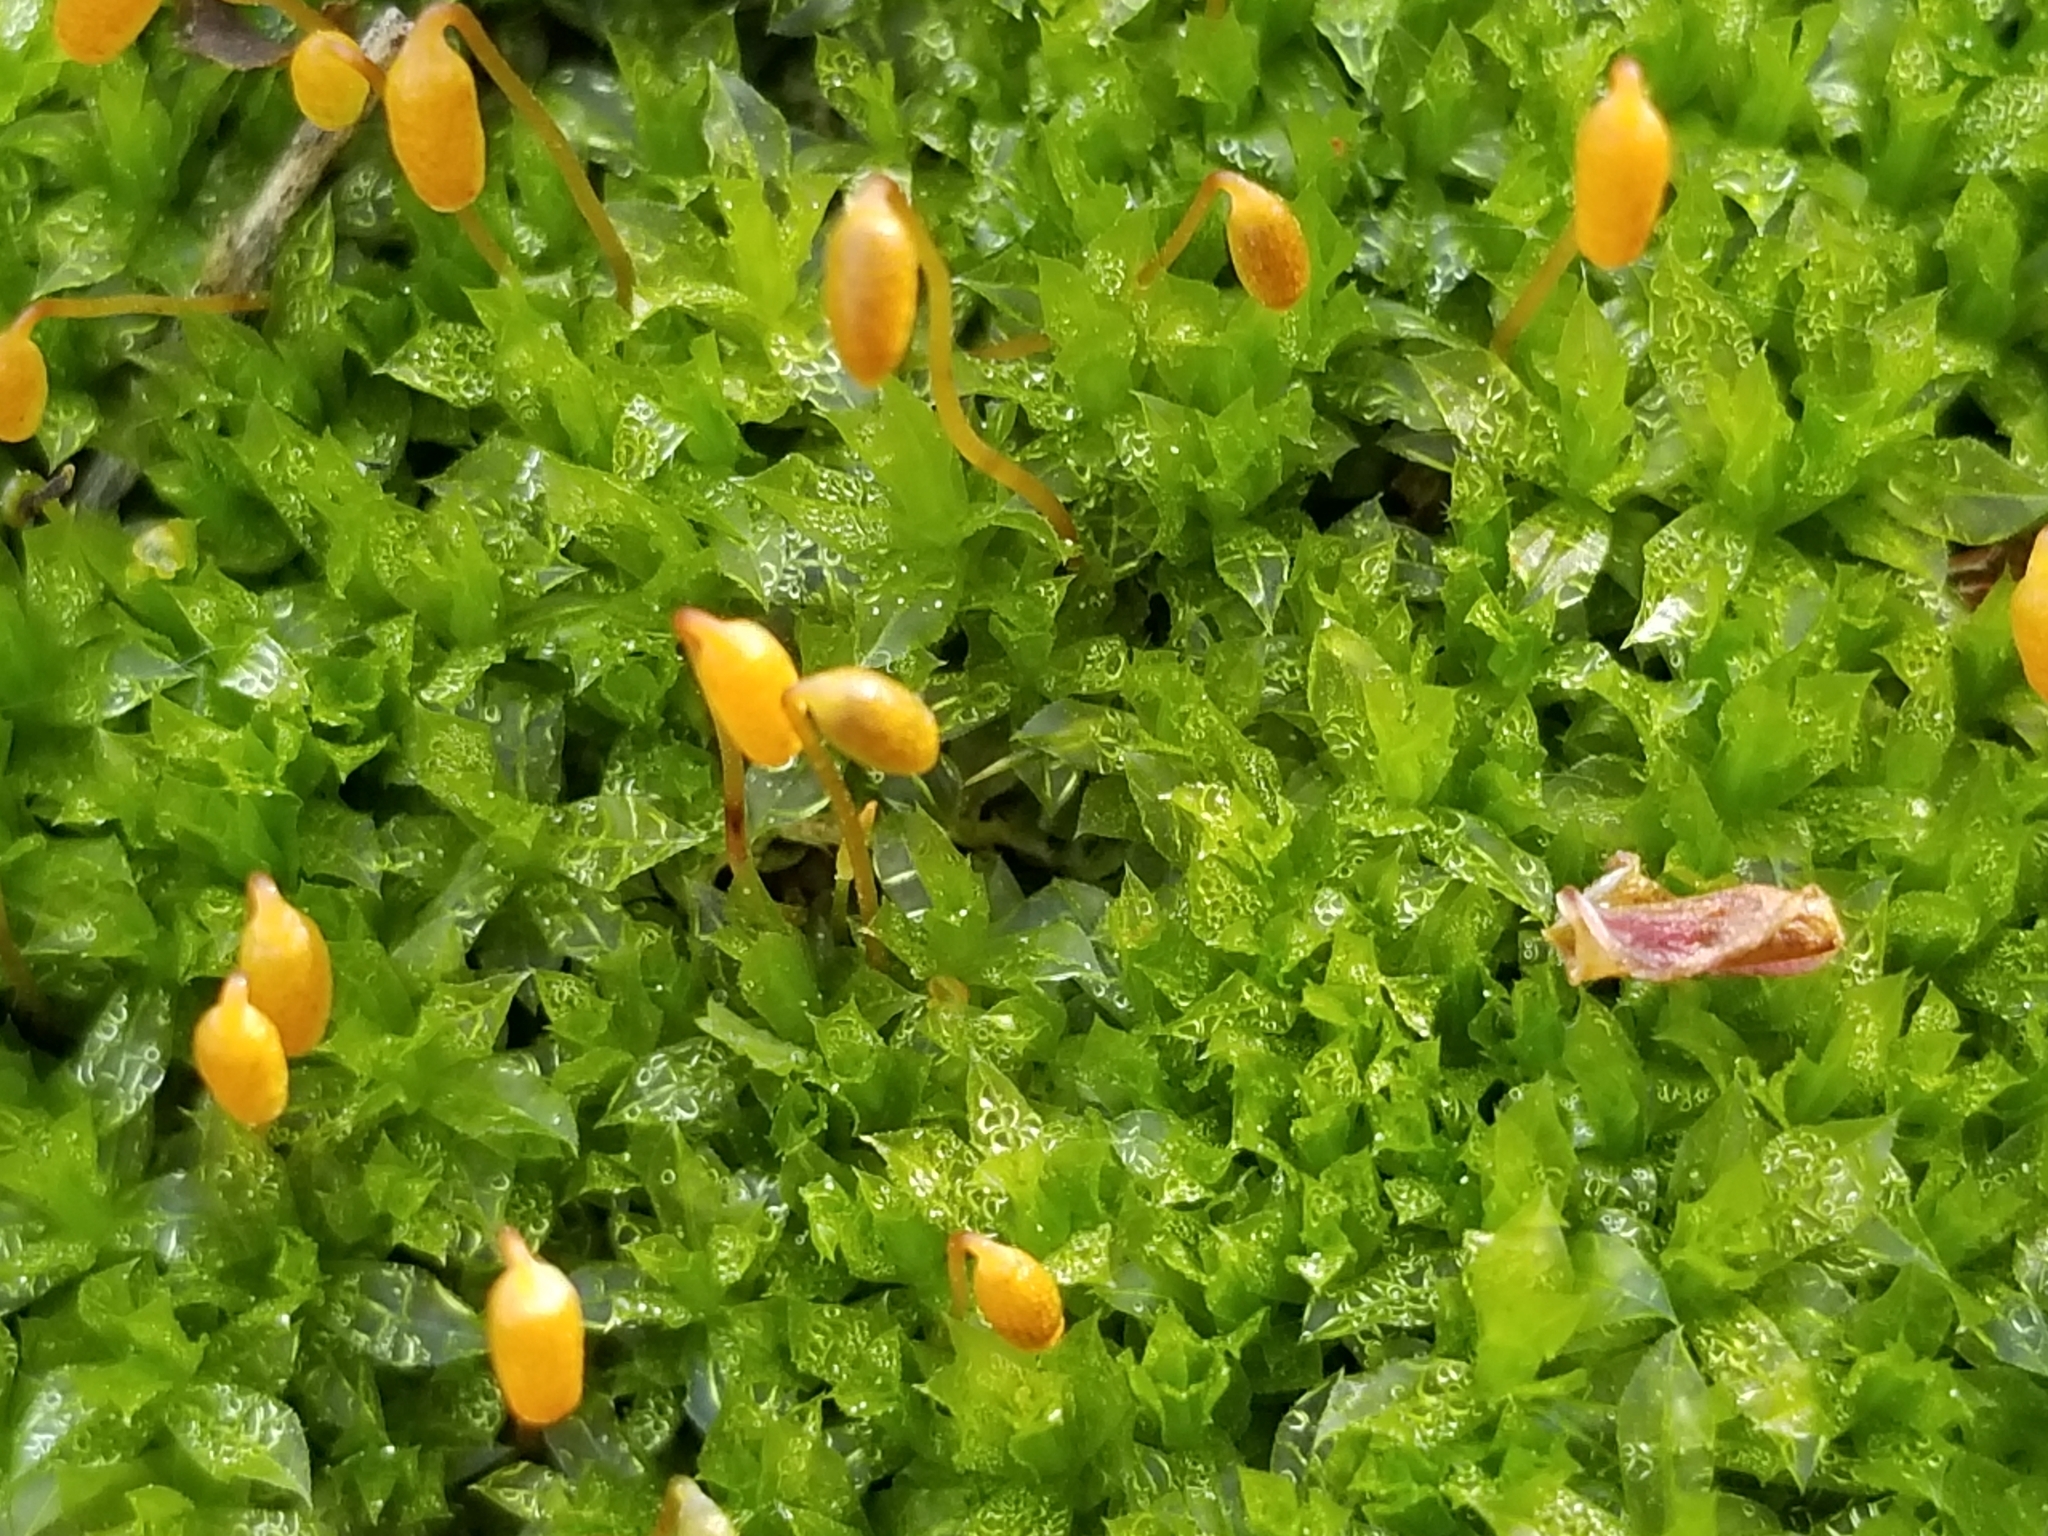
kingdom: Plantae
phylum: Bryophyta
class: Bryopsida
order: Bryales
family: Mniaceae
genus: Plagiomnium
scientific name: Plagiomnium cuspidatum
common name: Woodsy leafy moss
